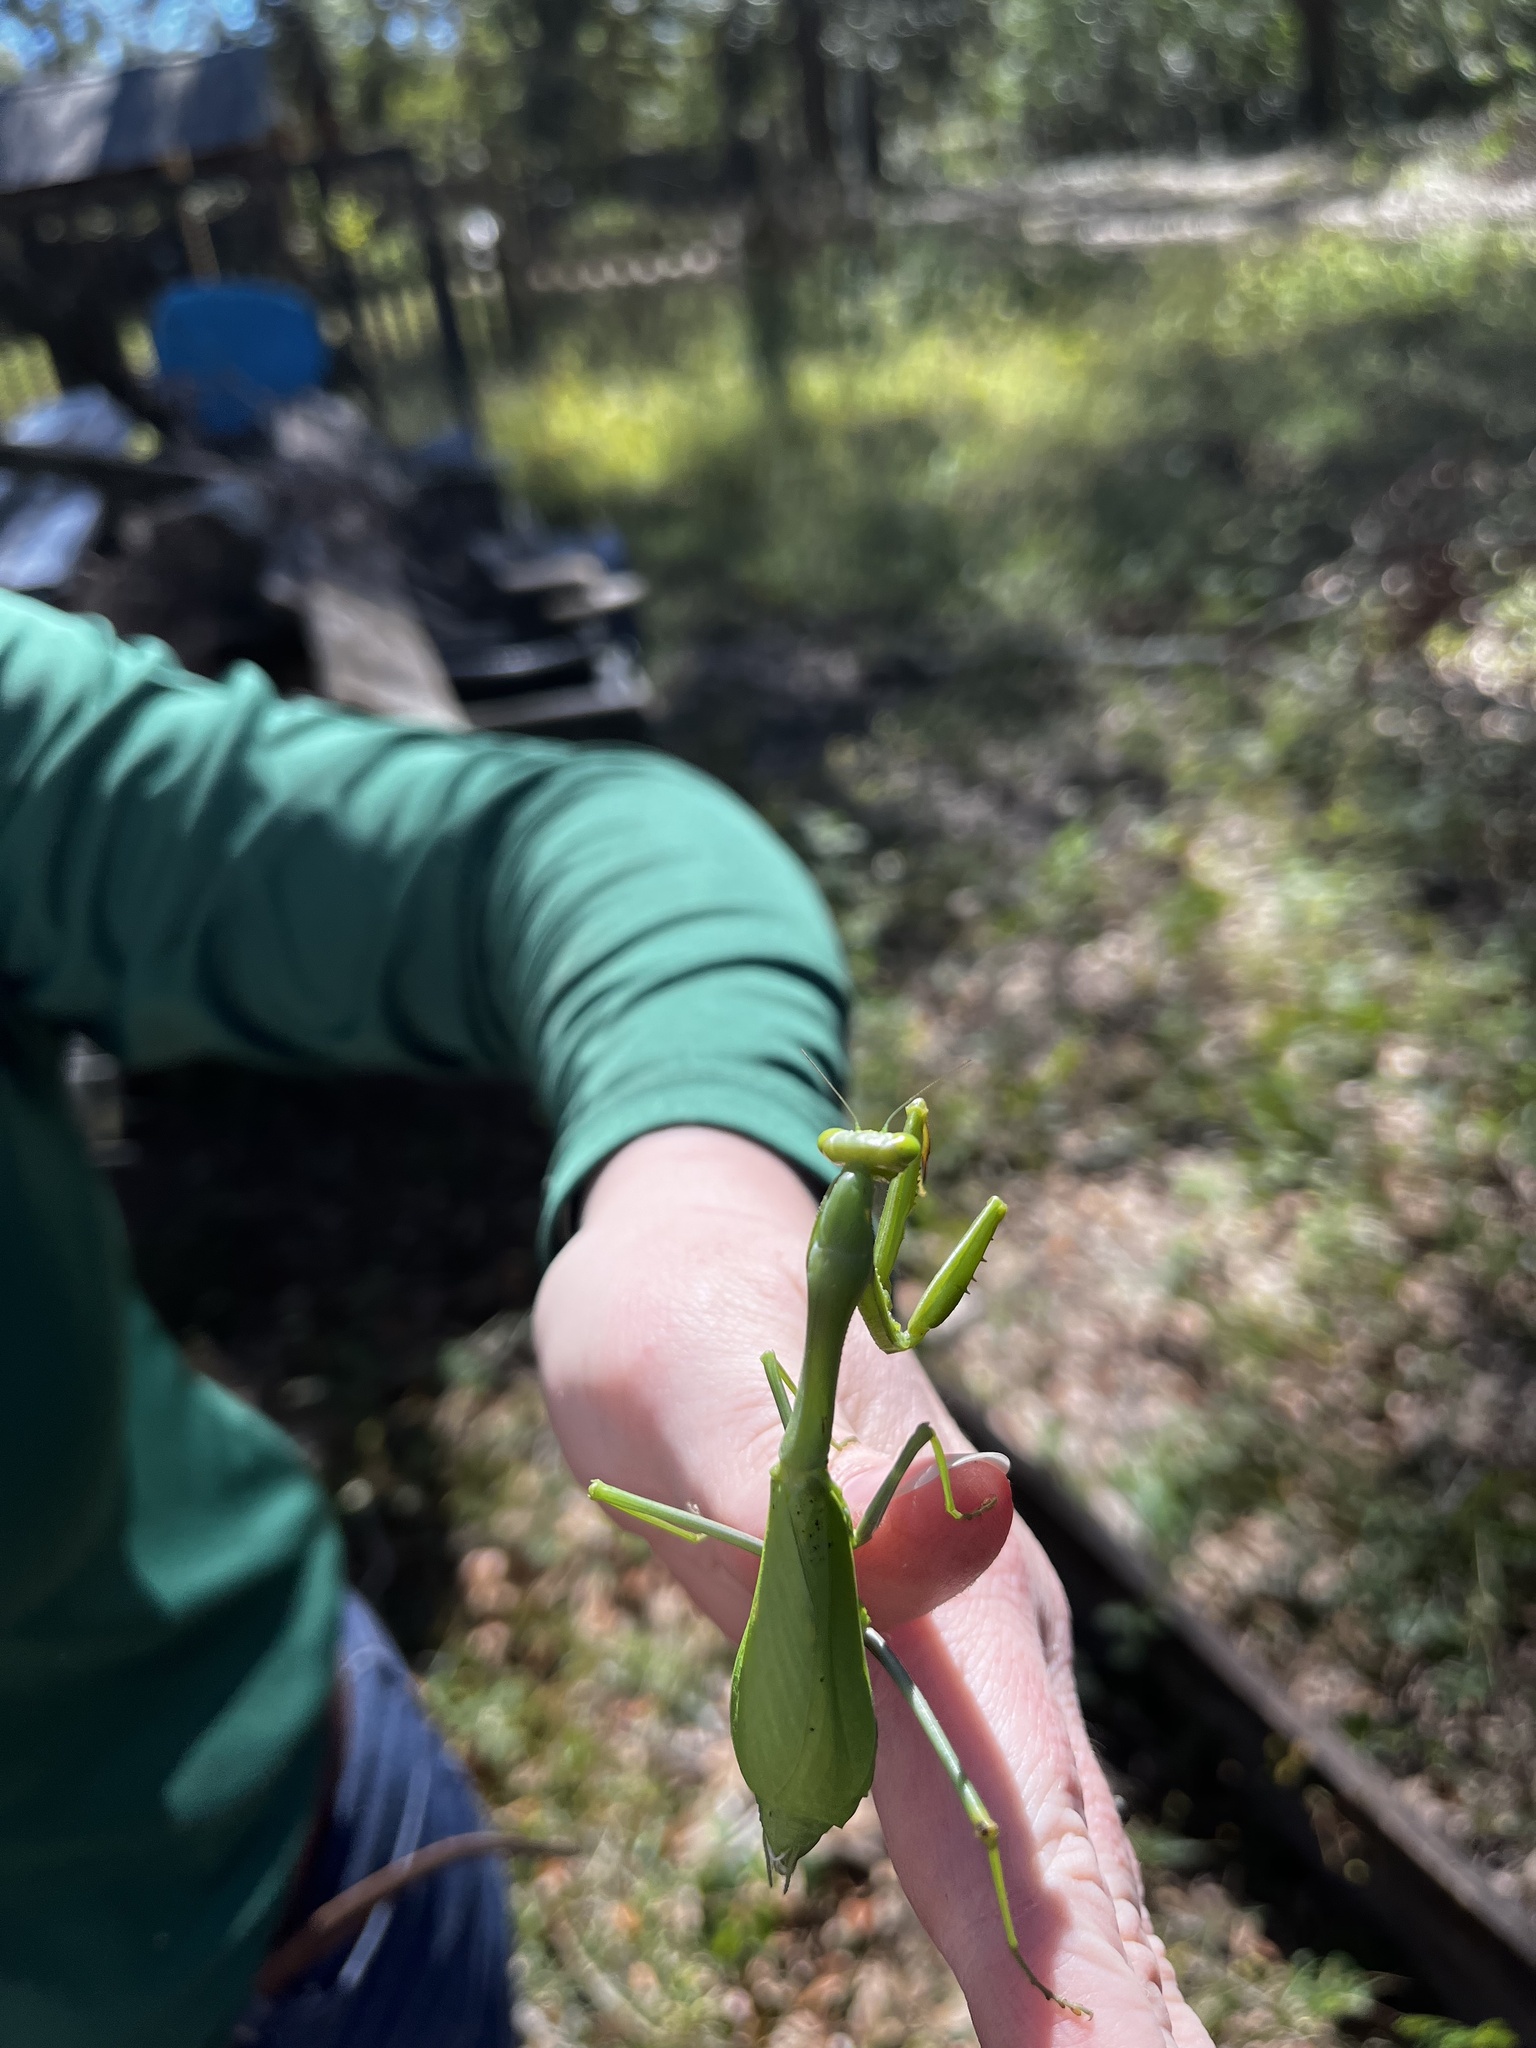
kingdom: Animalia
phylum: Arthropoda
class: Insecta
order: Mantodea
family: Mantidae
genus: Stagmomantis
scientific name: Stagmomantis limbata
